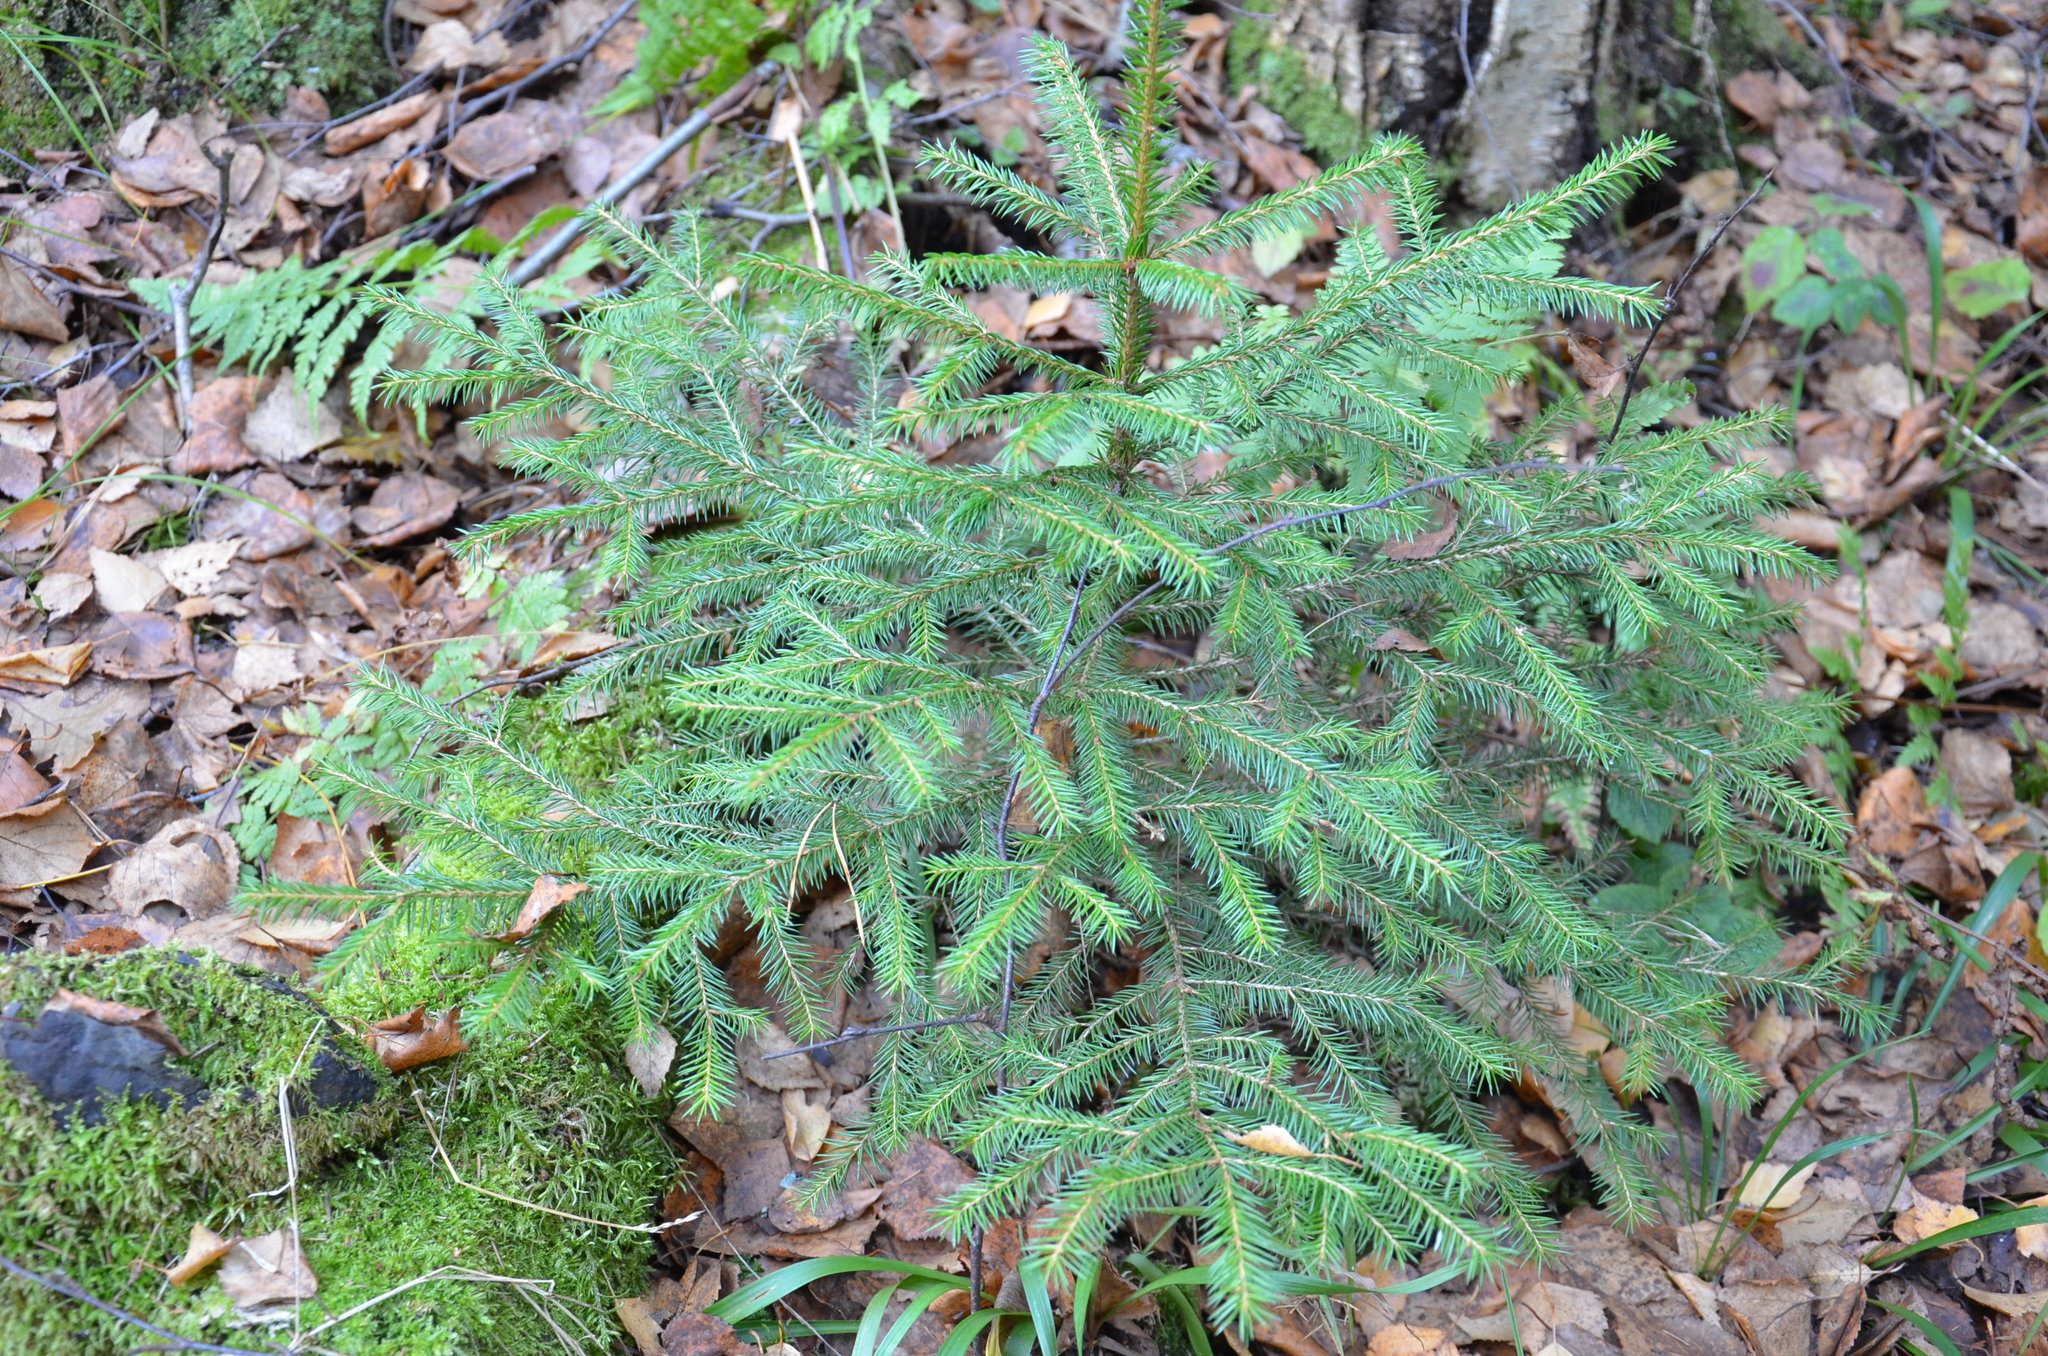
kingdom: Plantae
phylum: Tracheophyta
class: Pinopsida
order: Pinales
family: Pinaceae
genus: Picea
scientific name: Picea abies
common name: Norway spruce
